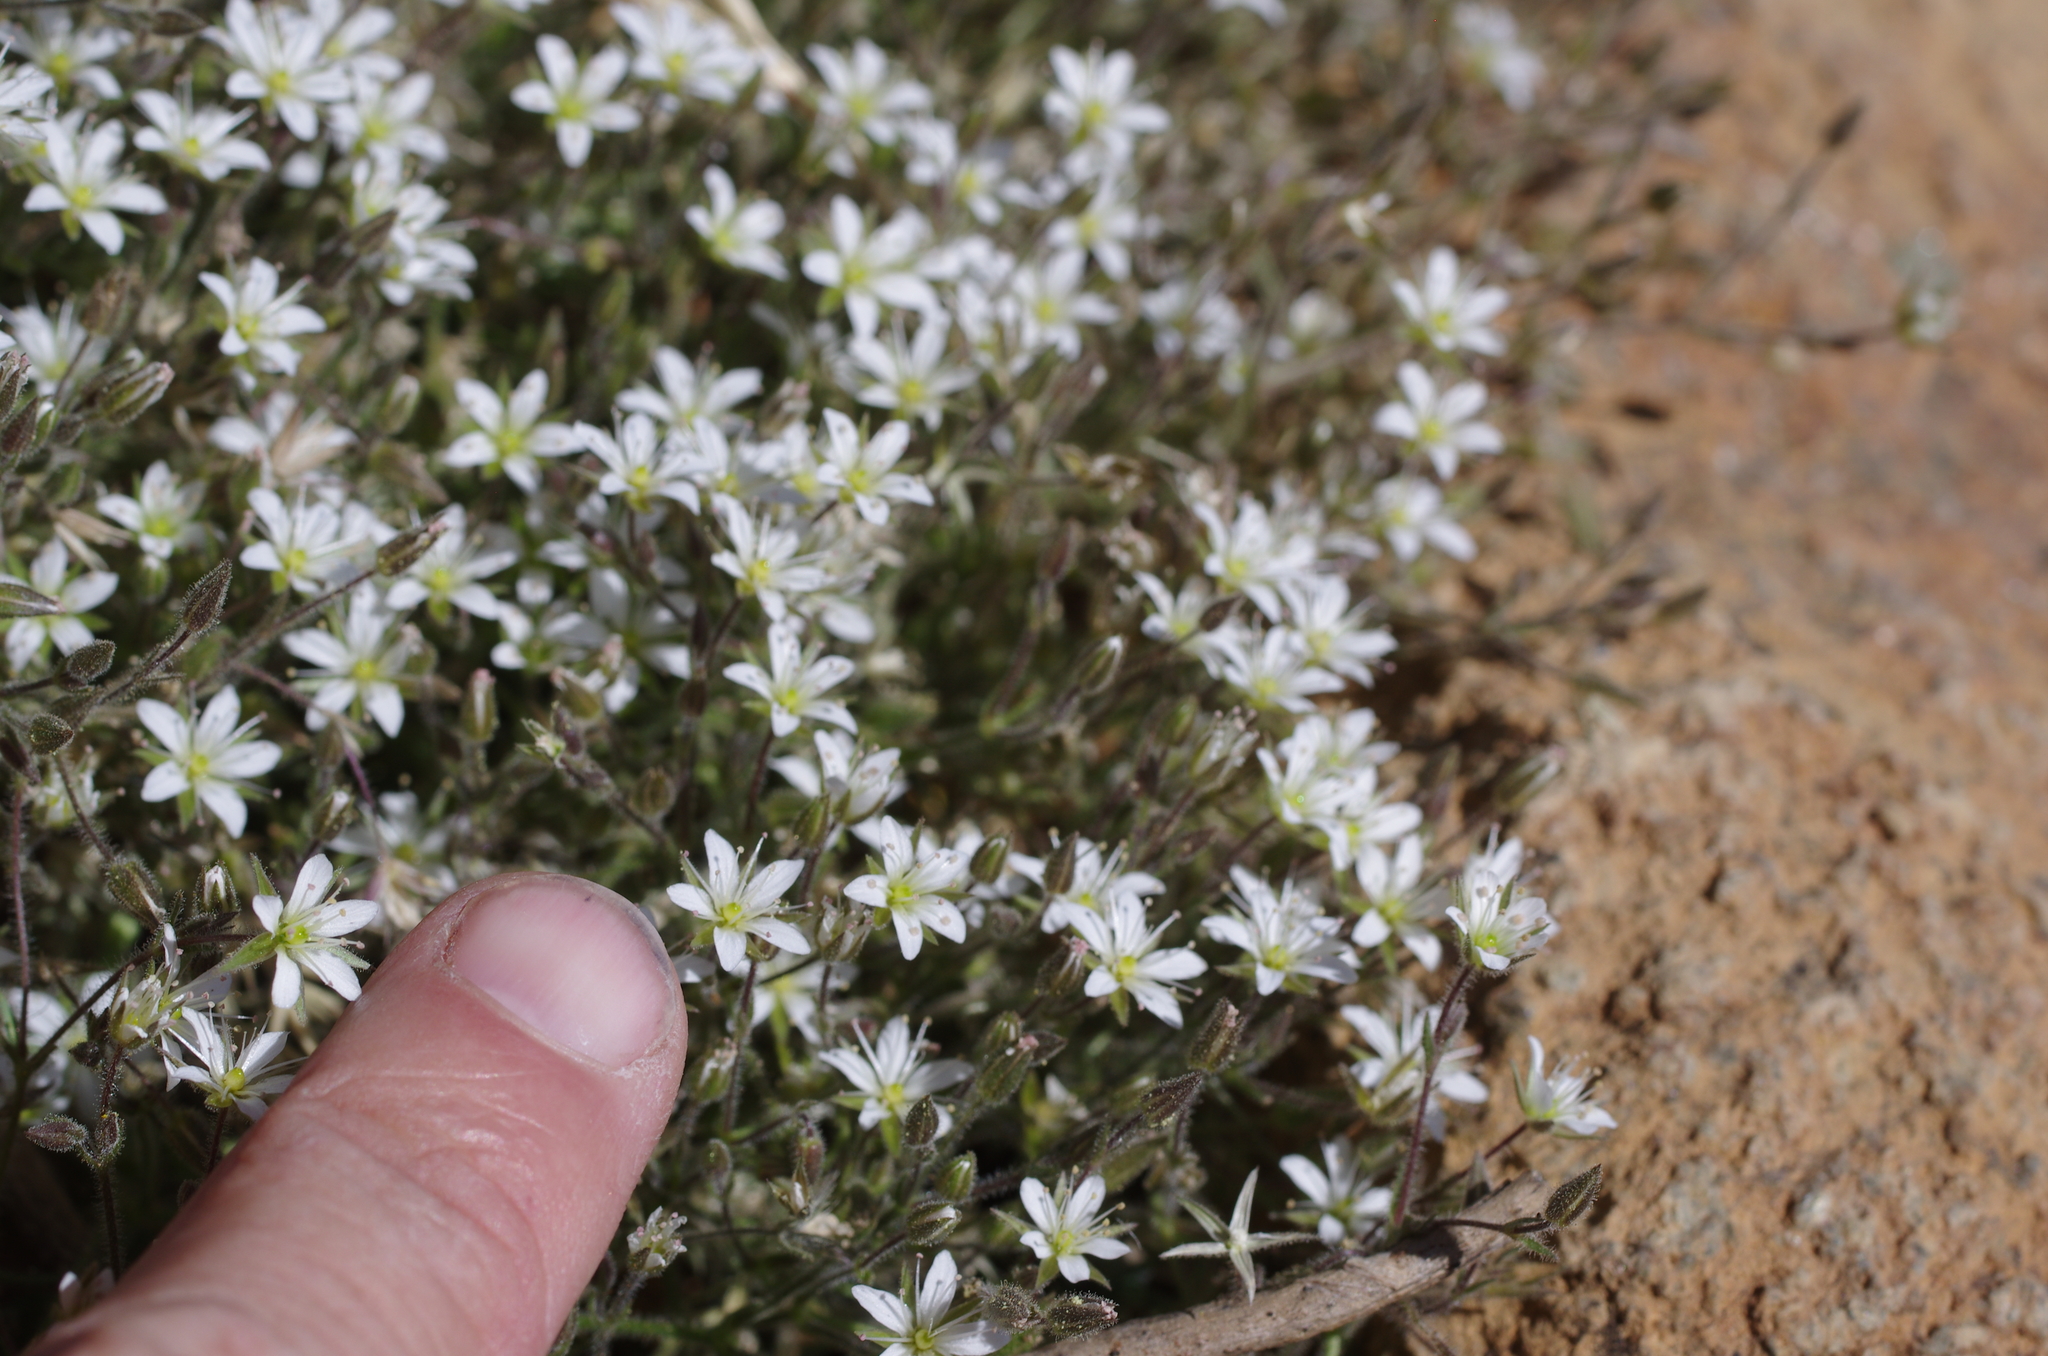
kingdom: Plantae
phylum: Tracheophyta
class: Magnoliopsida
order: Caryophyllales
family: Caryophyllaceae
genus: Eremogone
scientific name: Eremogone kingii
